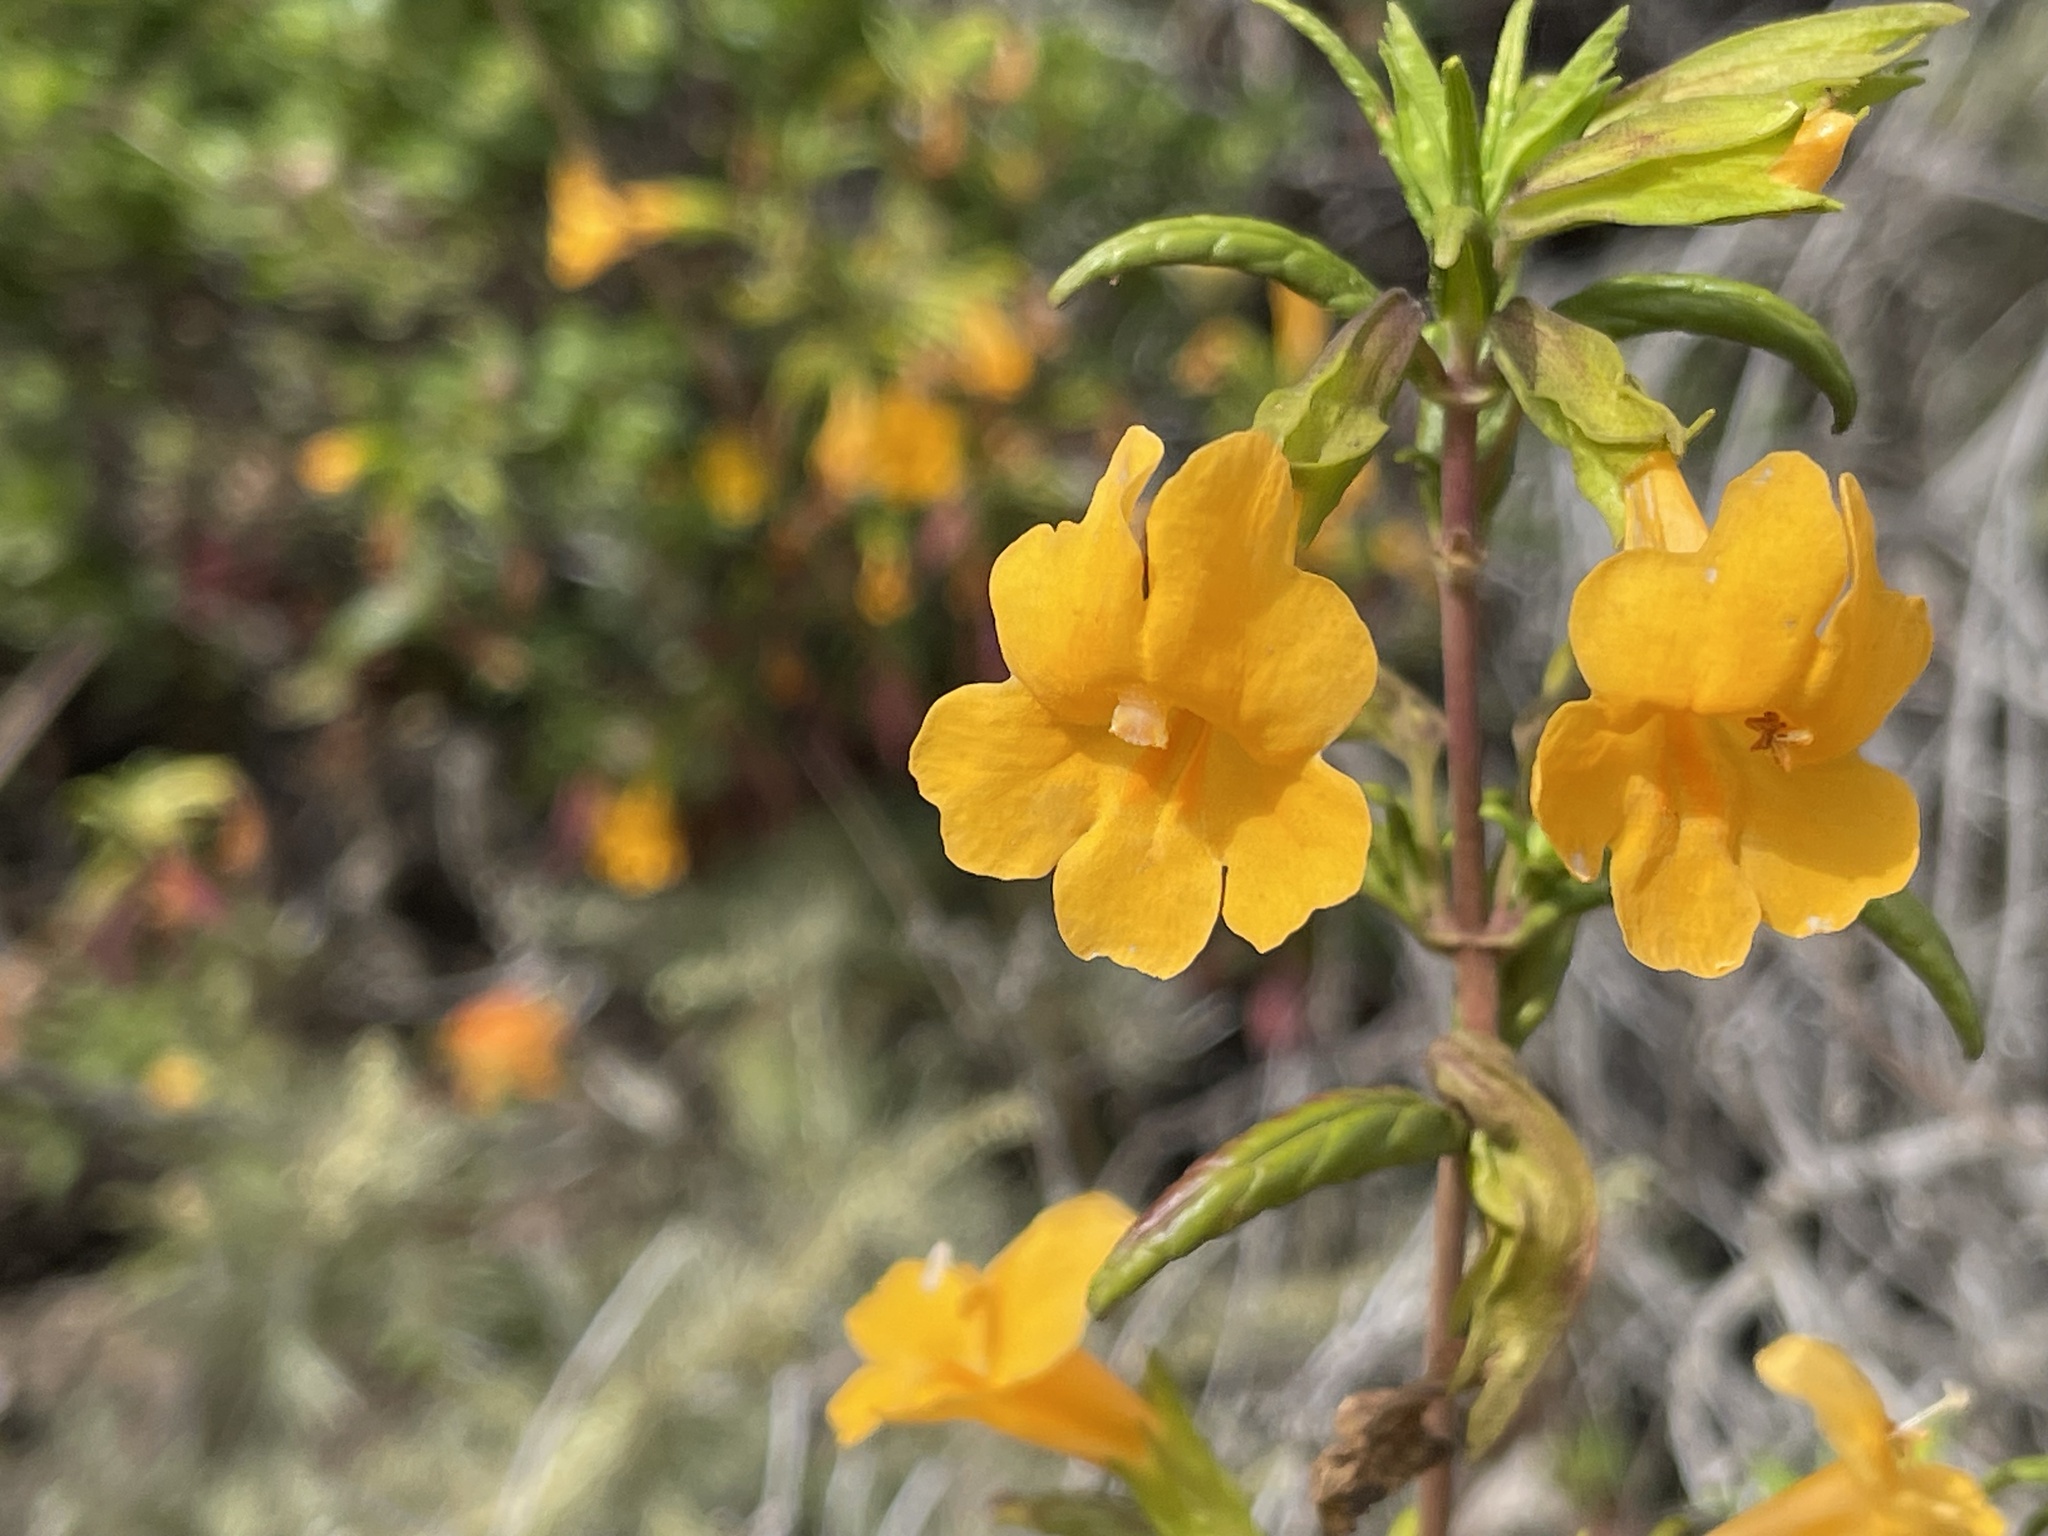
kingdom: Plantae
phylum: Tracheophyta
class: Magnoliopsida
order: Lamiales
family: Phrymaceae
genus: Diplacus
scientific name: Diplacus aurantiacus
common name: Bush monkey-flower
